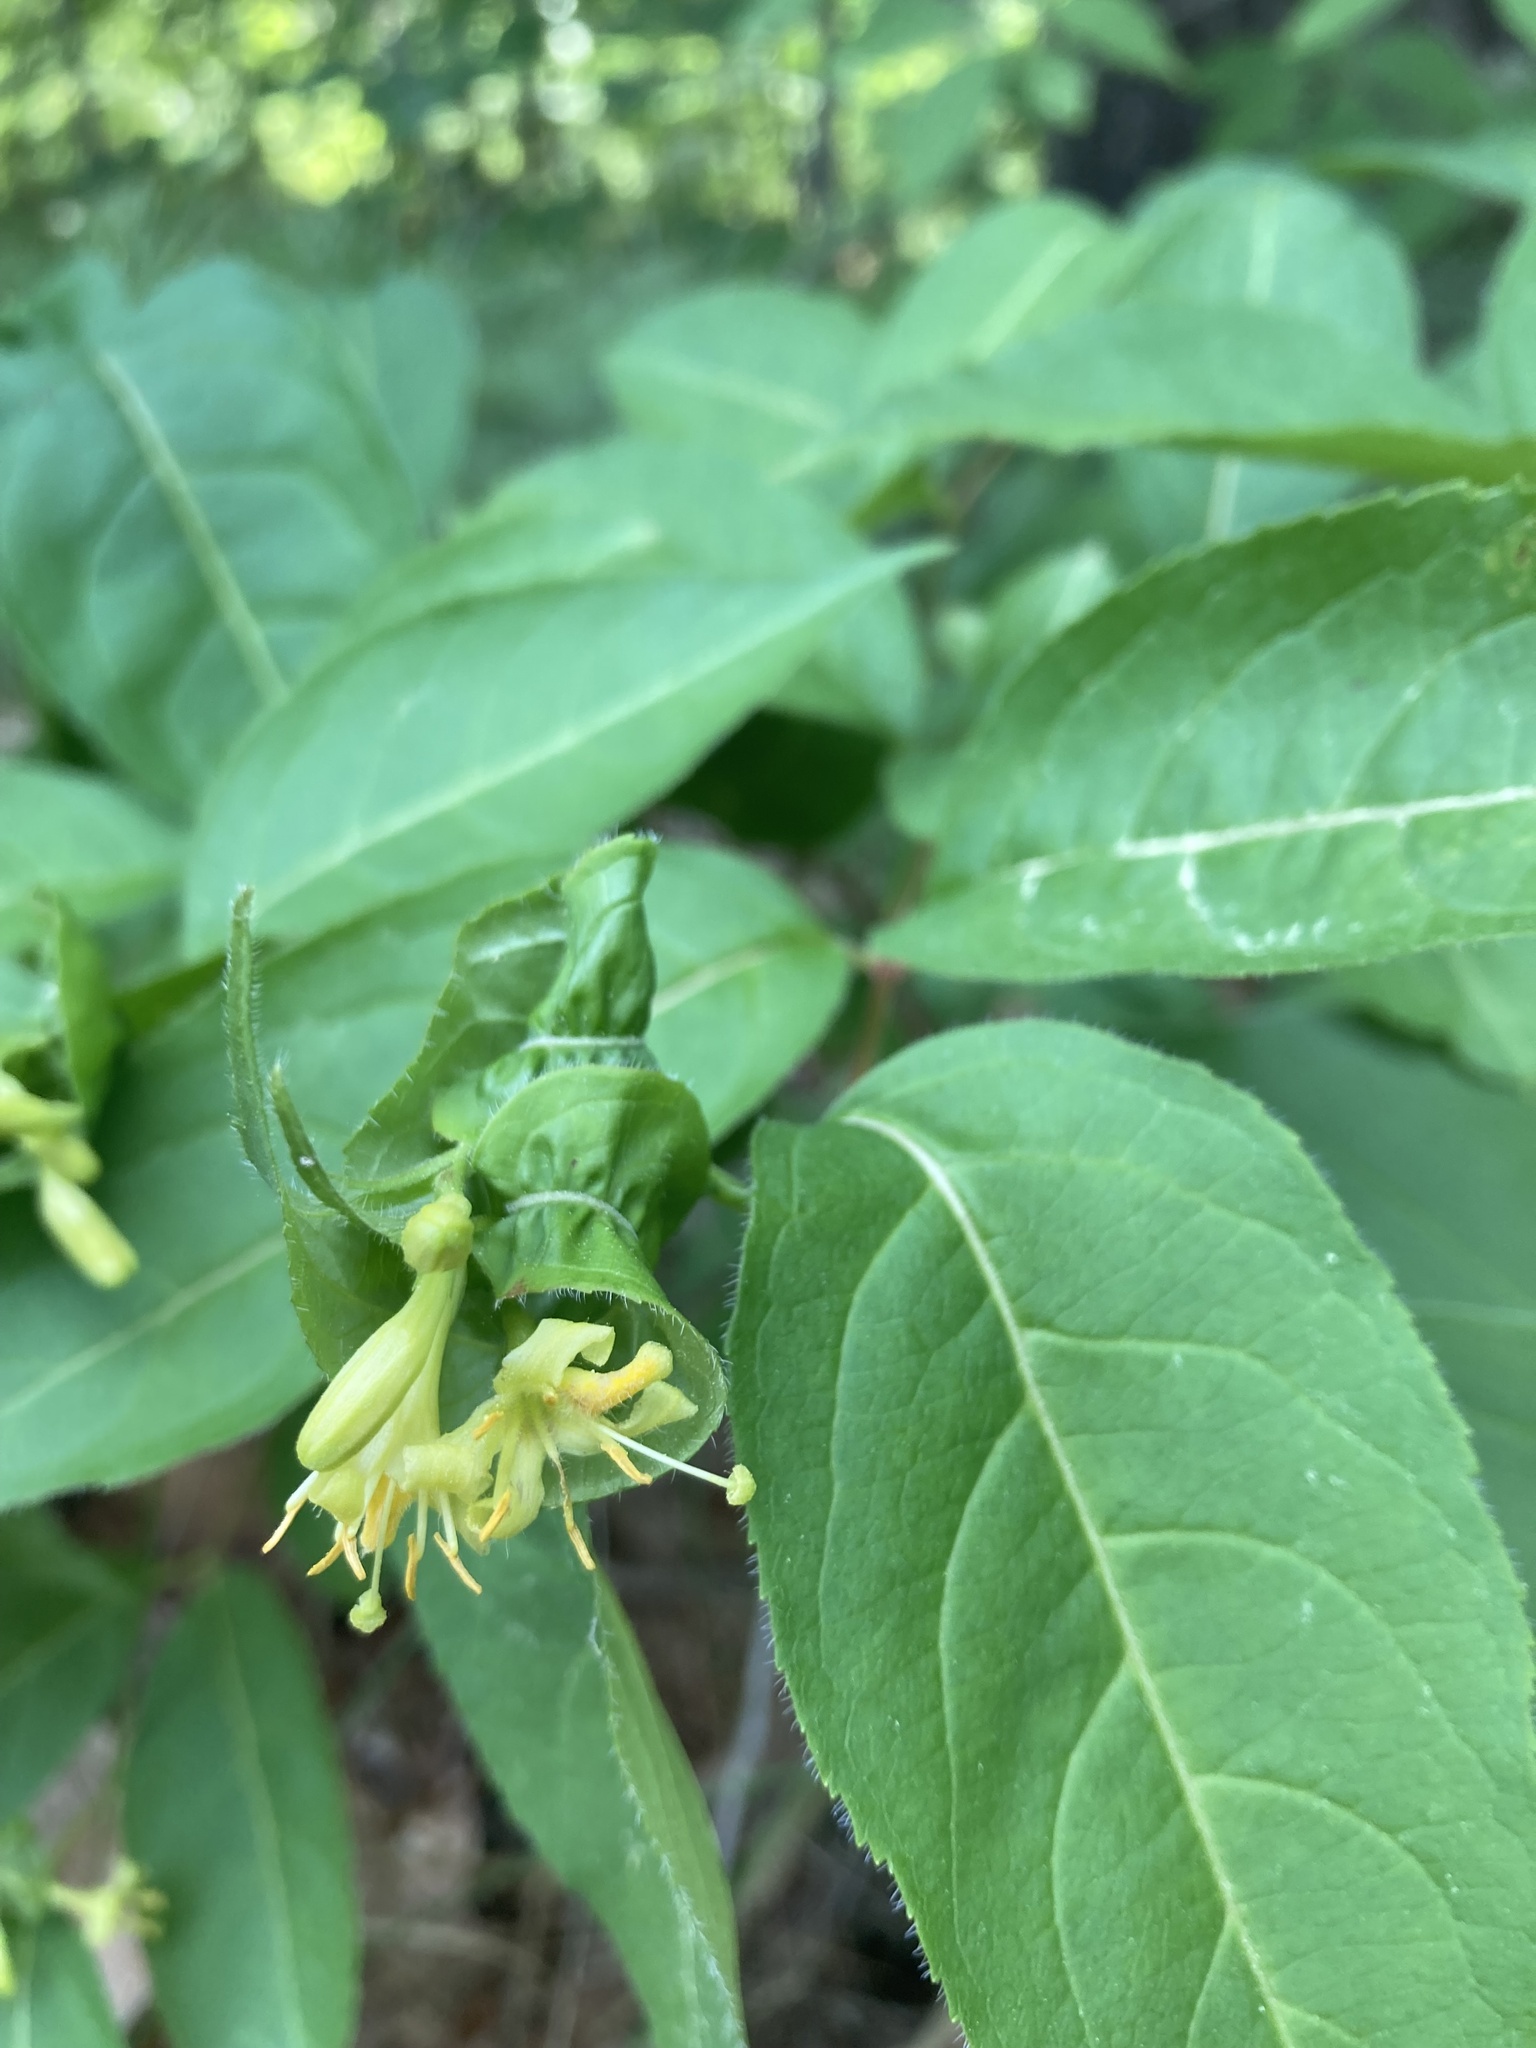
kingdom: Plantae
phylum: Tracheophyta
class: Magnoliopsida
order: Dipsacales
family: Caprifoliaceae
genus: Diervilla
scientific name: Diervilla lonicera
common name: Bush-honeysuckle
